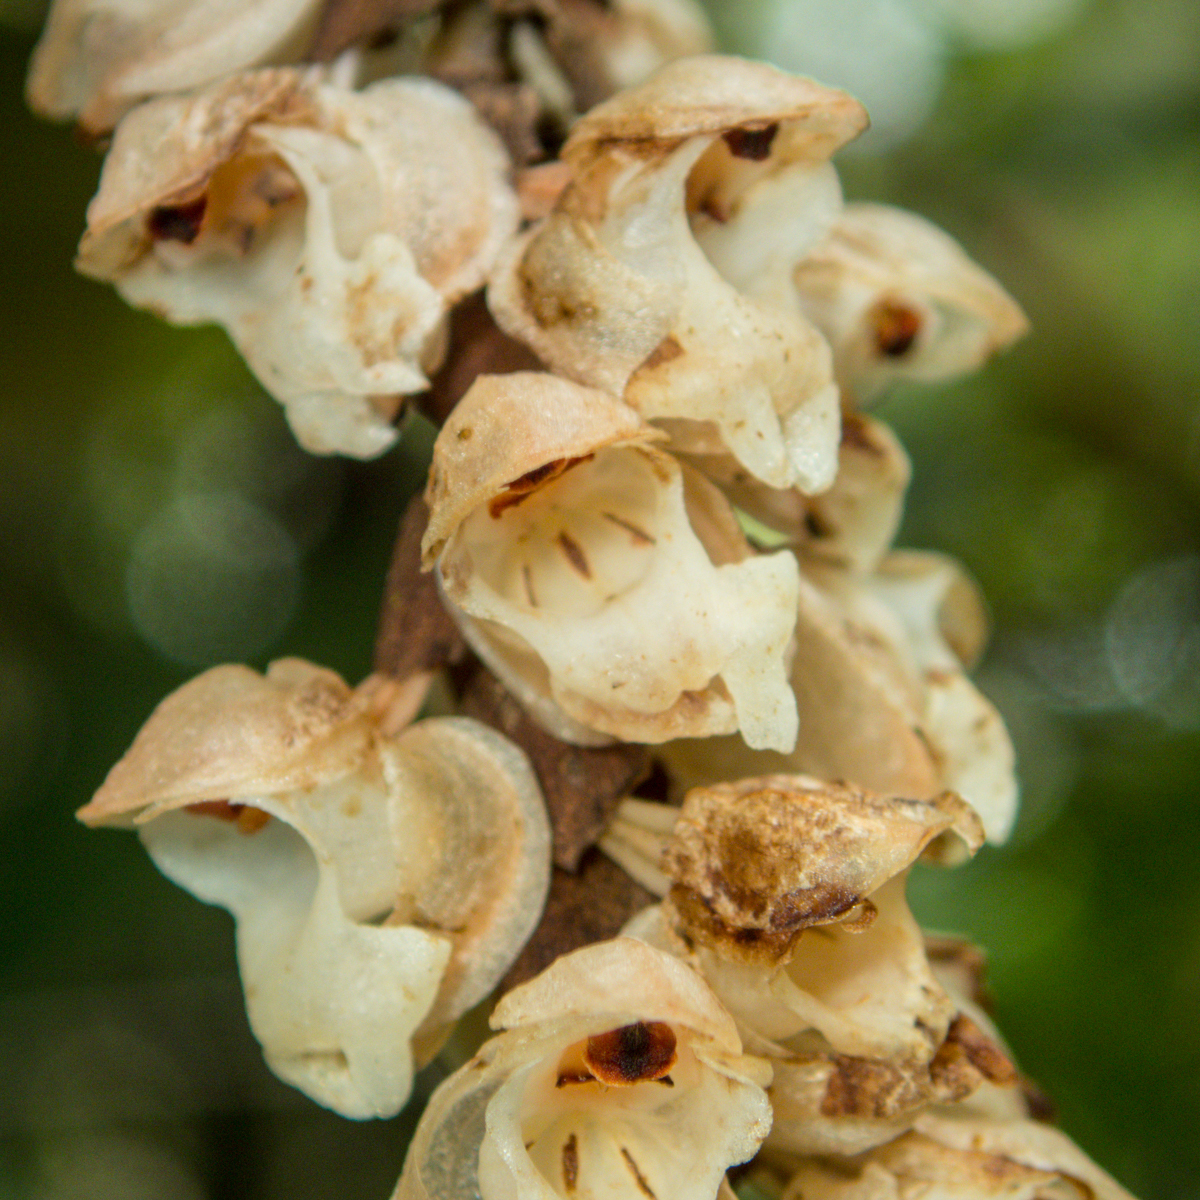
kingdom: Plantae
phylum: Tracheophyta
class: Liliopsida
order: Asparagales
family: Orchidaceae
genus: Pholidota
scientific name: Pholidota imbricata
